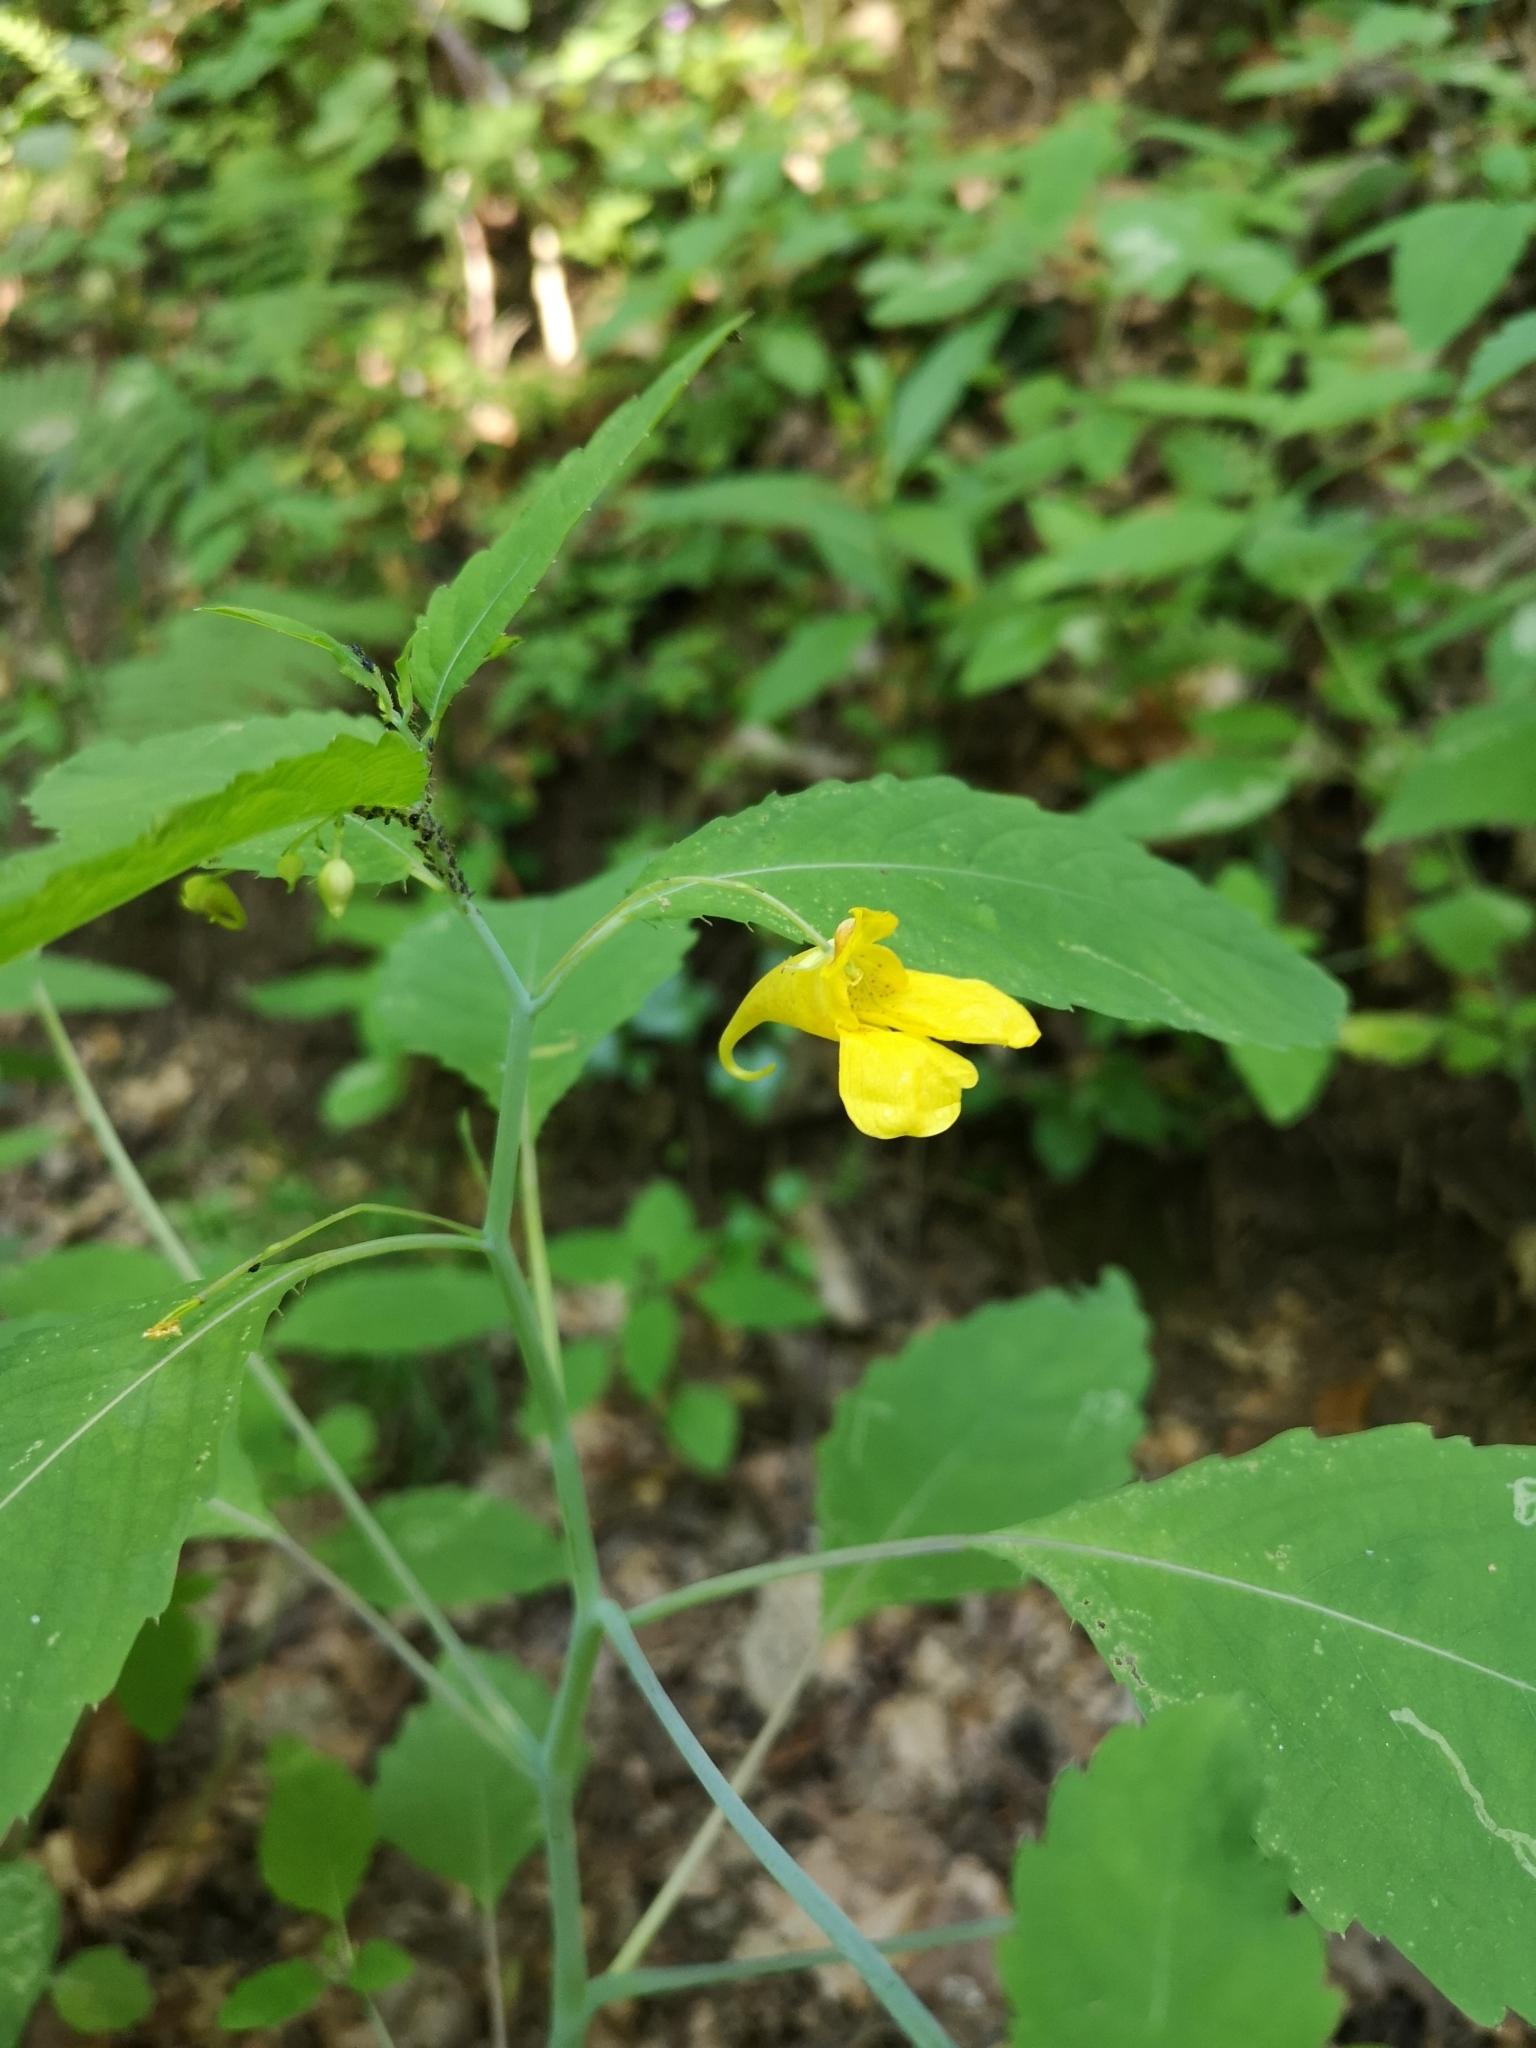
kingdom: Plantae
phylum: Tracheophyta
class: Magnoliopsida
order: Ericales
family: Balsaminaceae
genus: Impatiens
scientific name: Impatiens noli-tangere
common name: Touch-me-not balsam
